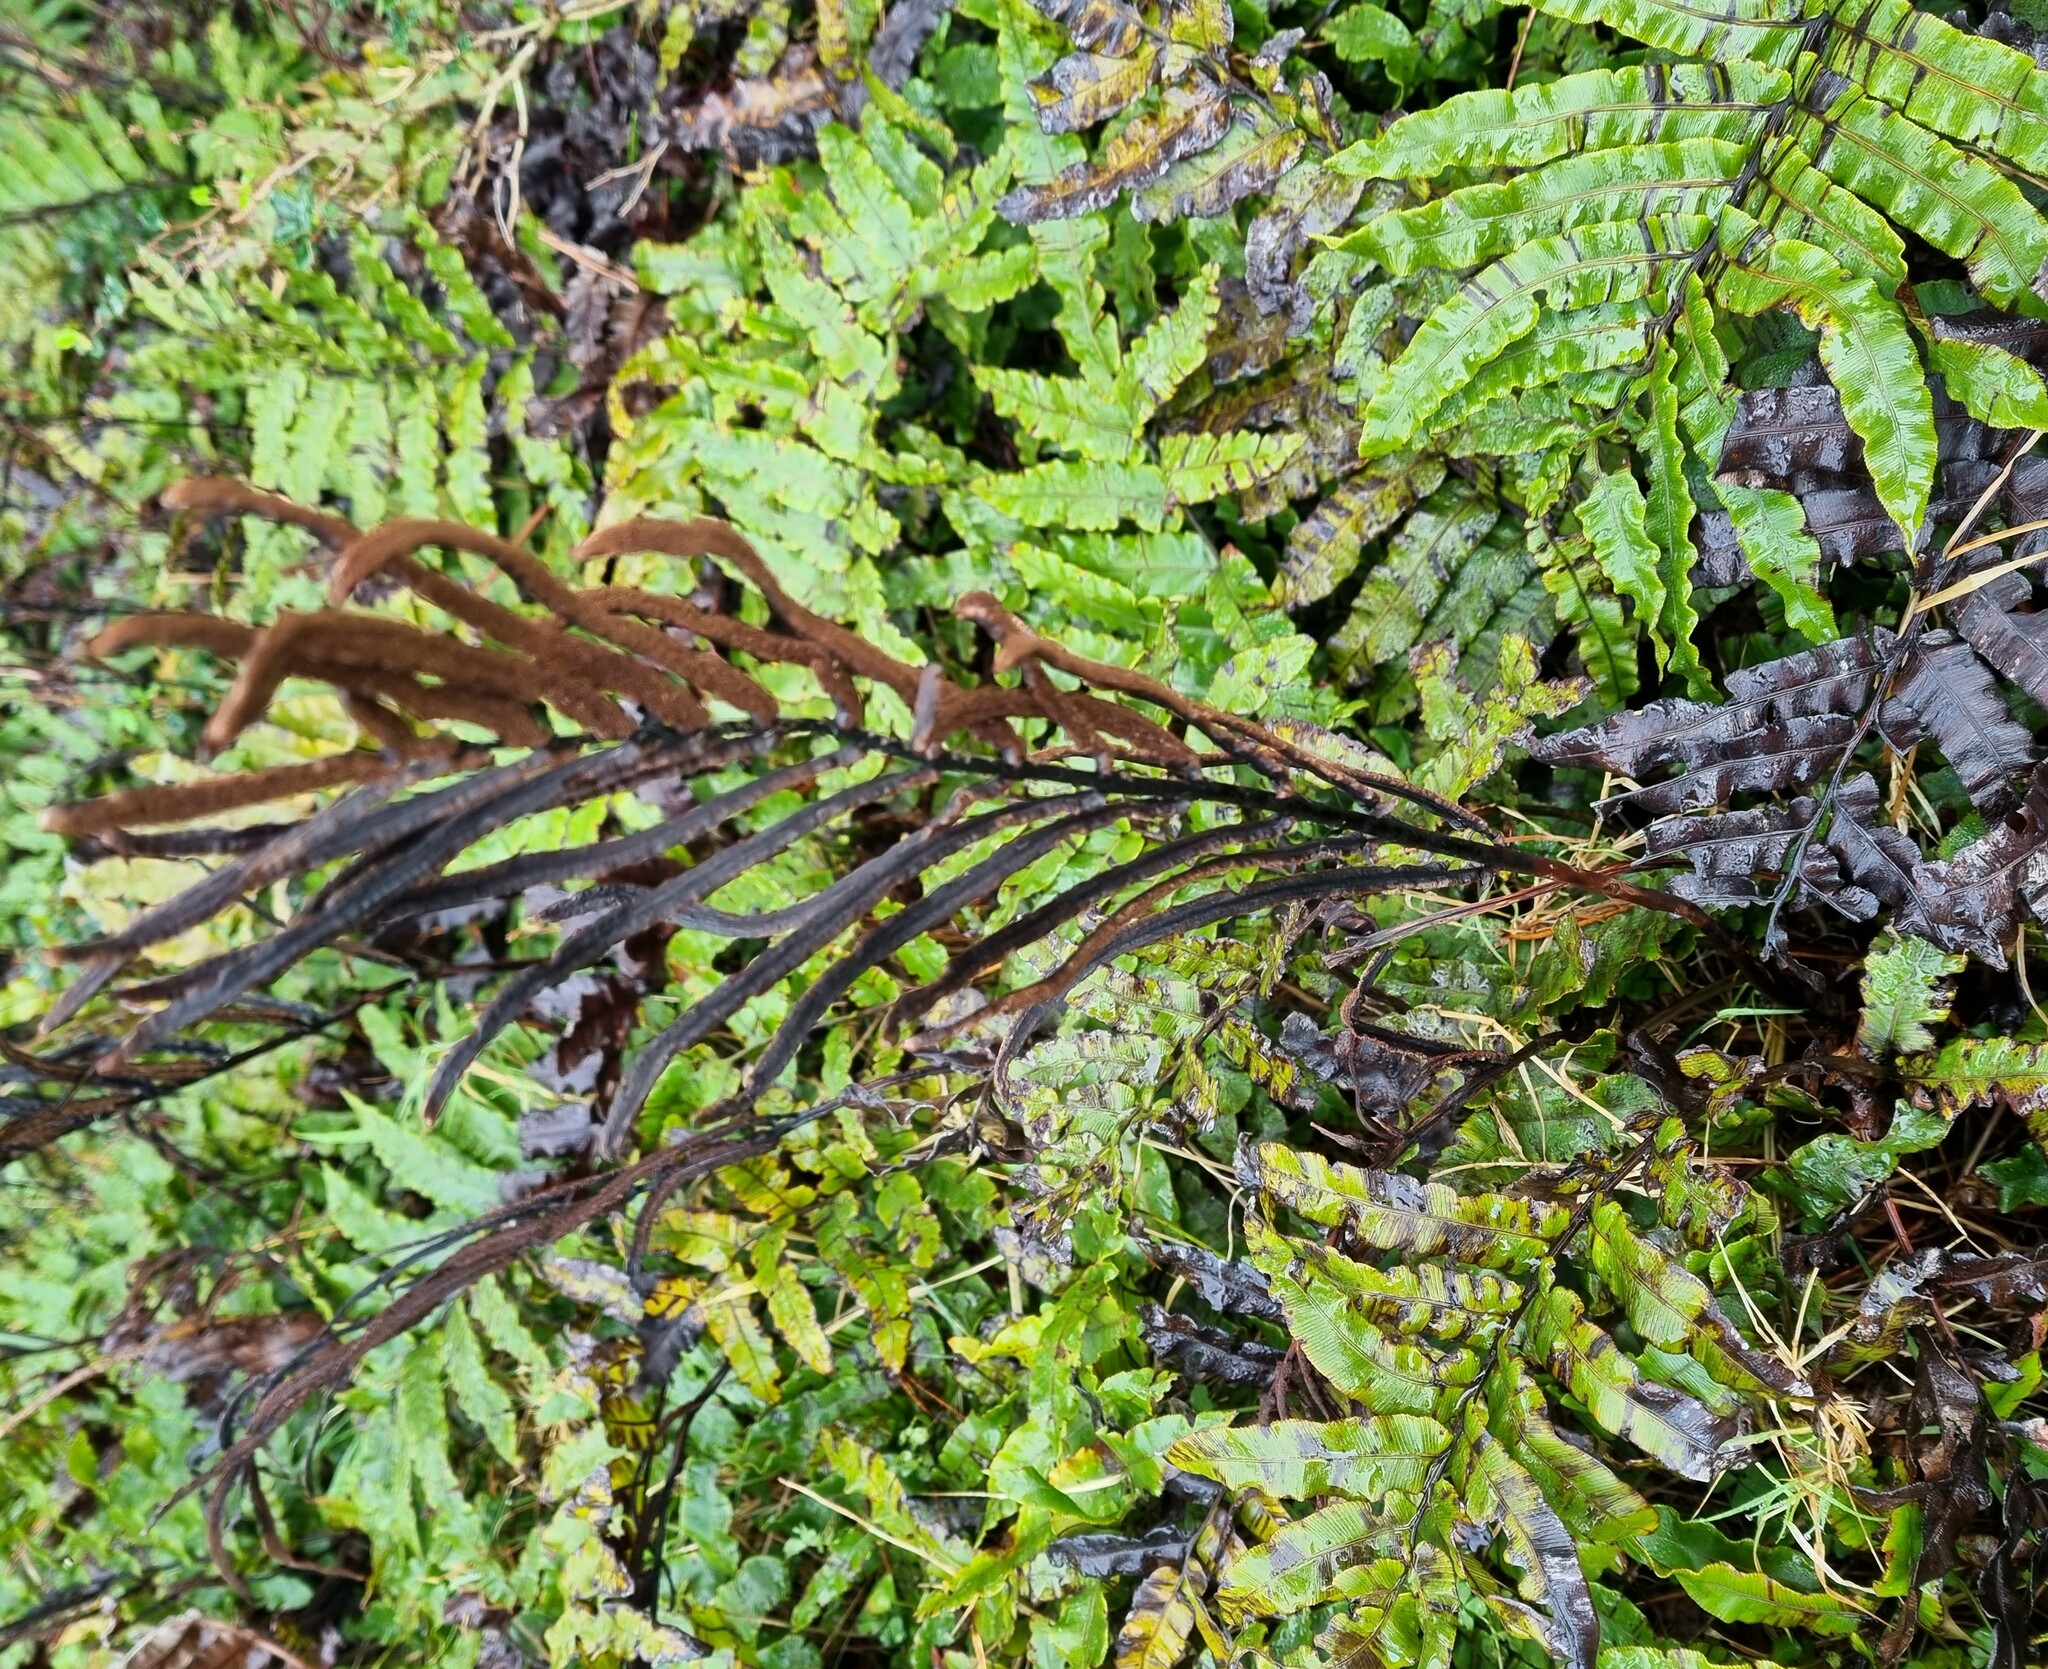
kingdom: Plantae
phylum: Tracheophyta
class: Polypodiopsida
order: Polypodiales
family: Blechnaceae
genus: Parablechnum
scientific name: Parablechnum procerum
